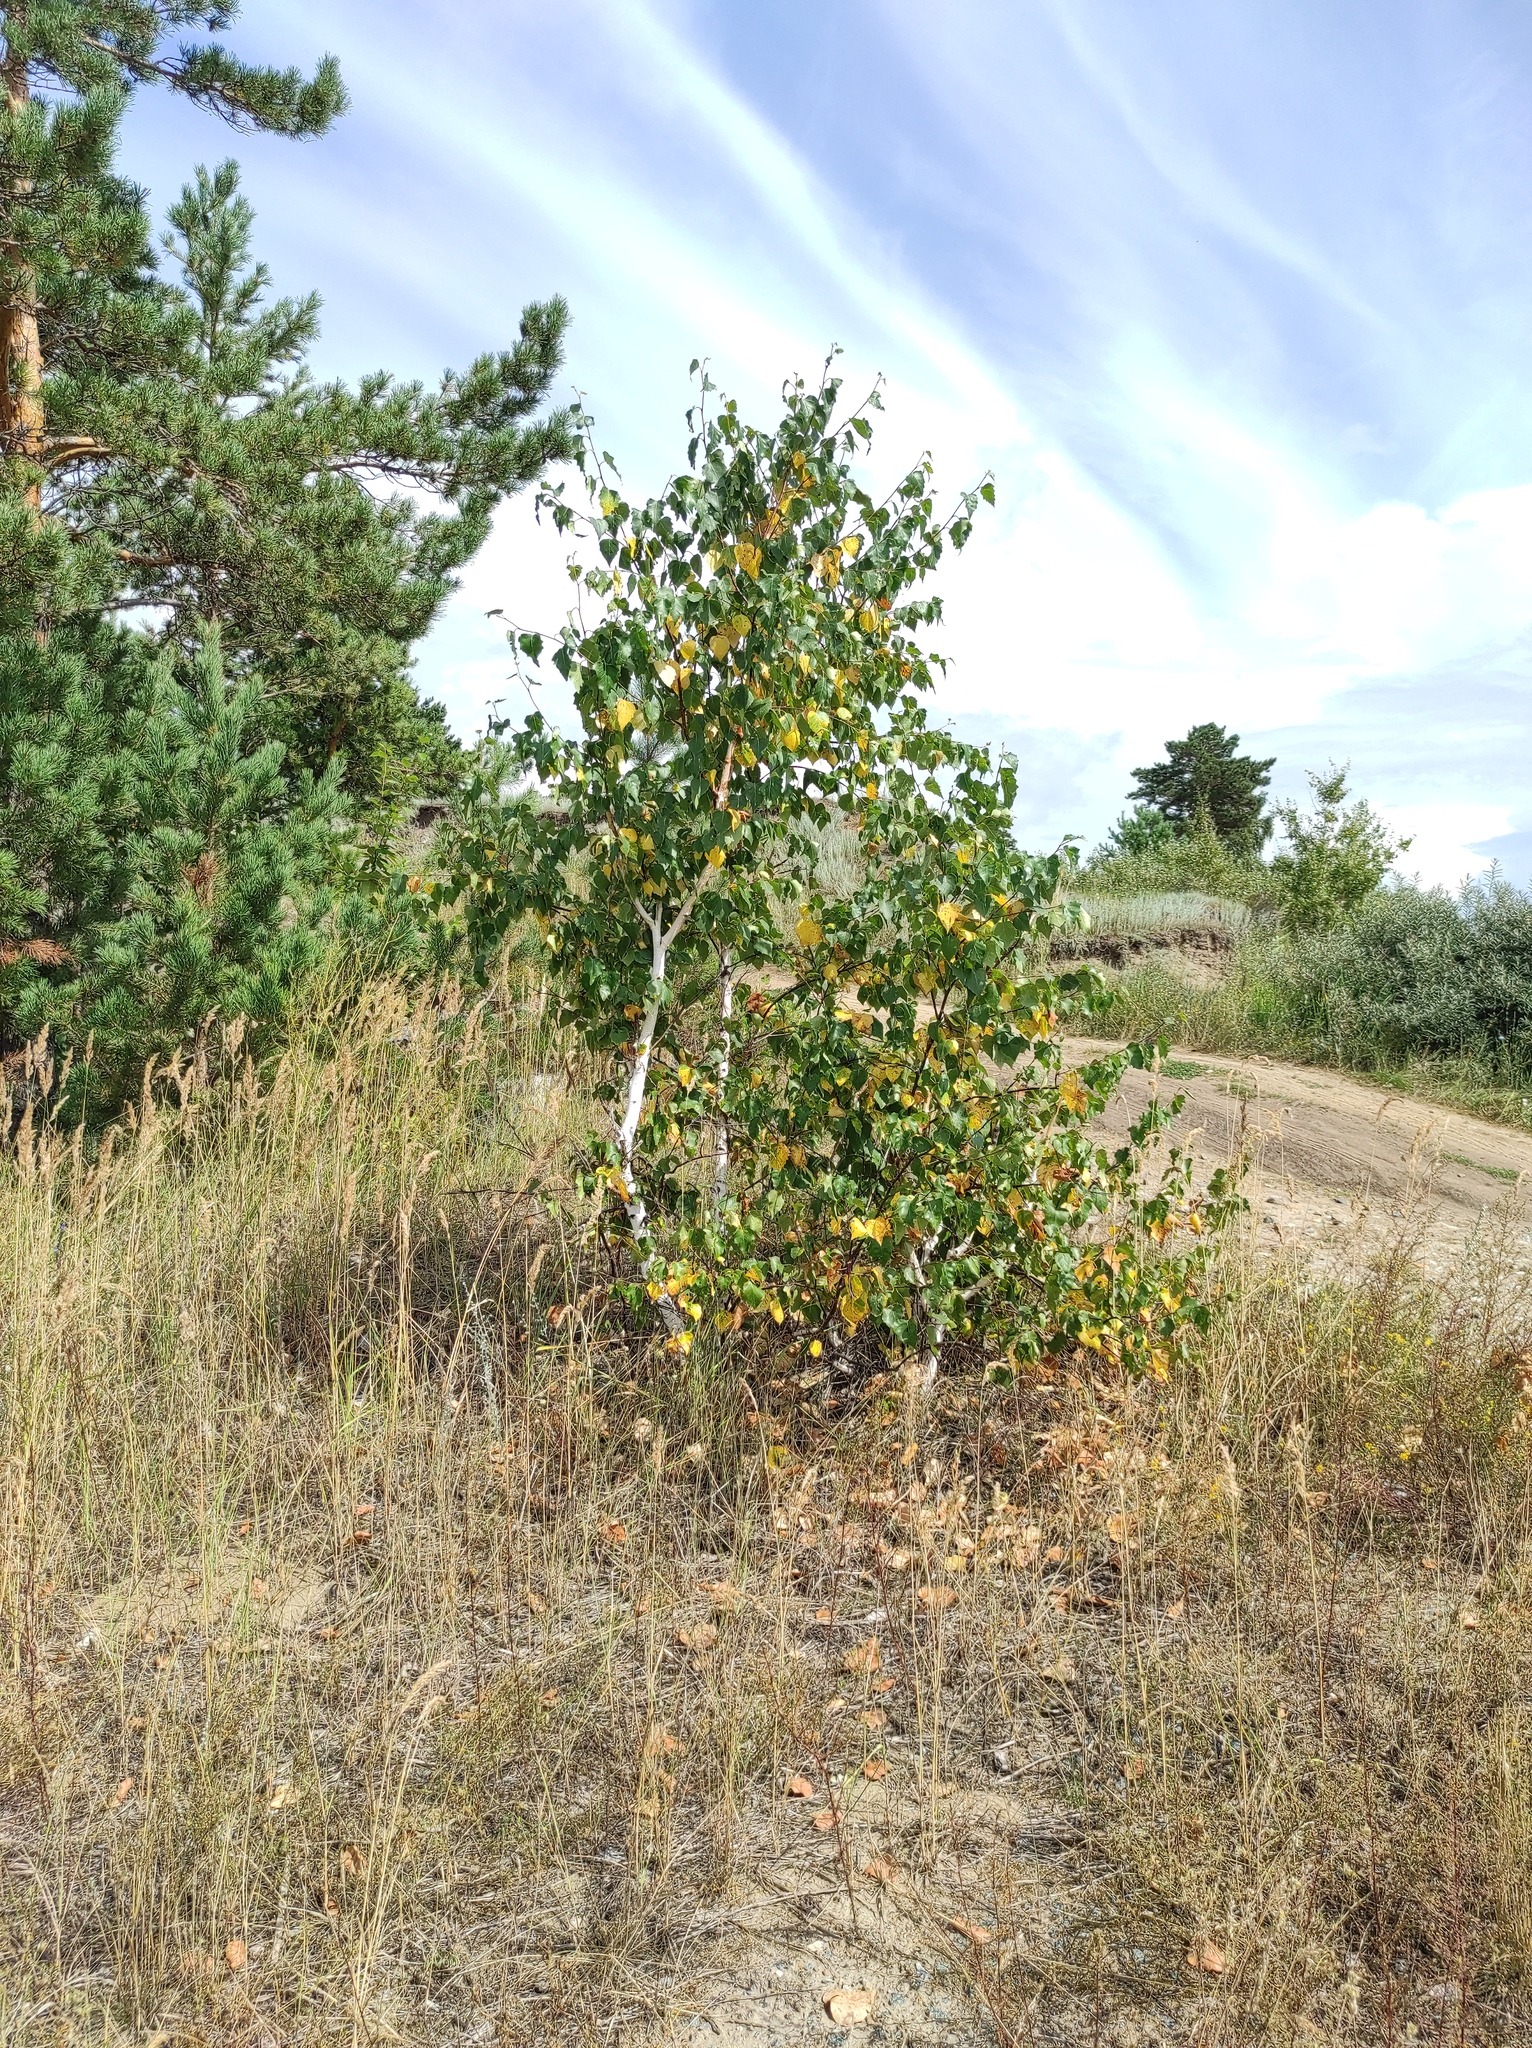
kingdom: Plantae
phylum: Tracheophyta
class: Magnoliopsida
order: Fagales
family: Betulaceae
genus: Betula
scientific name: Betula pendula
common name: Silver birch
